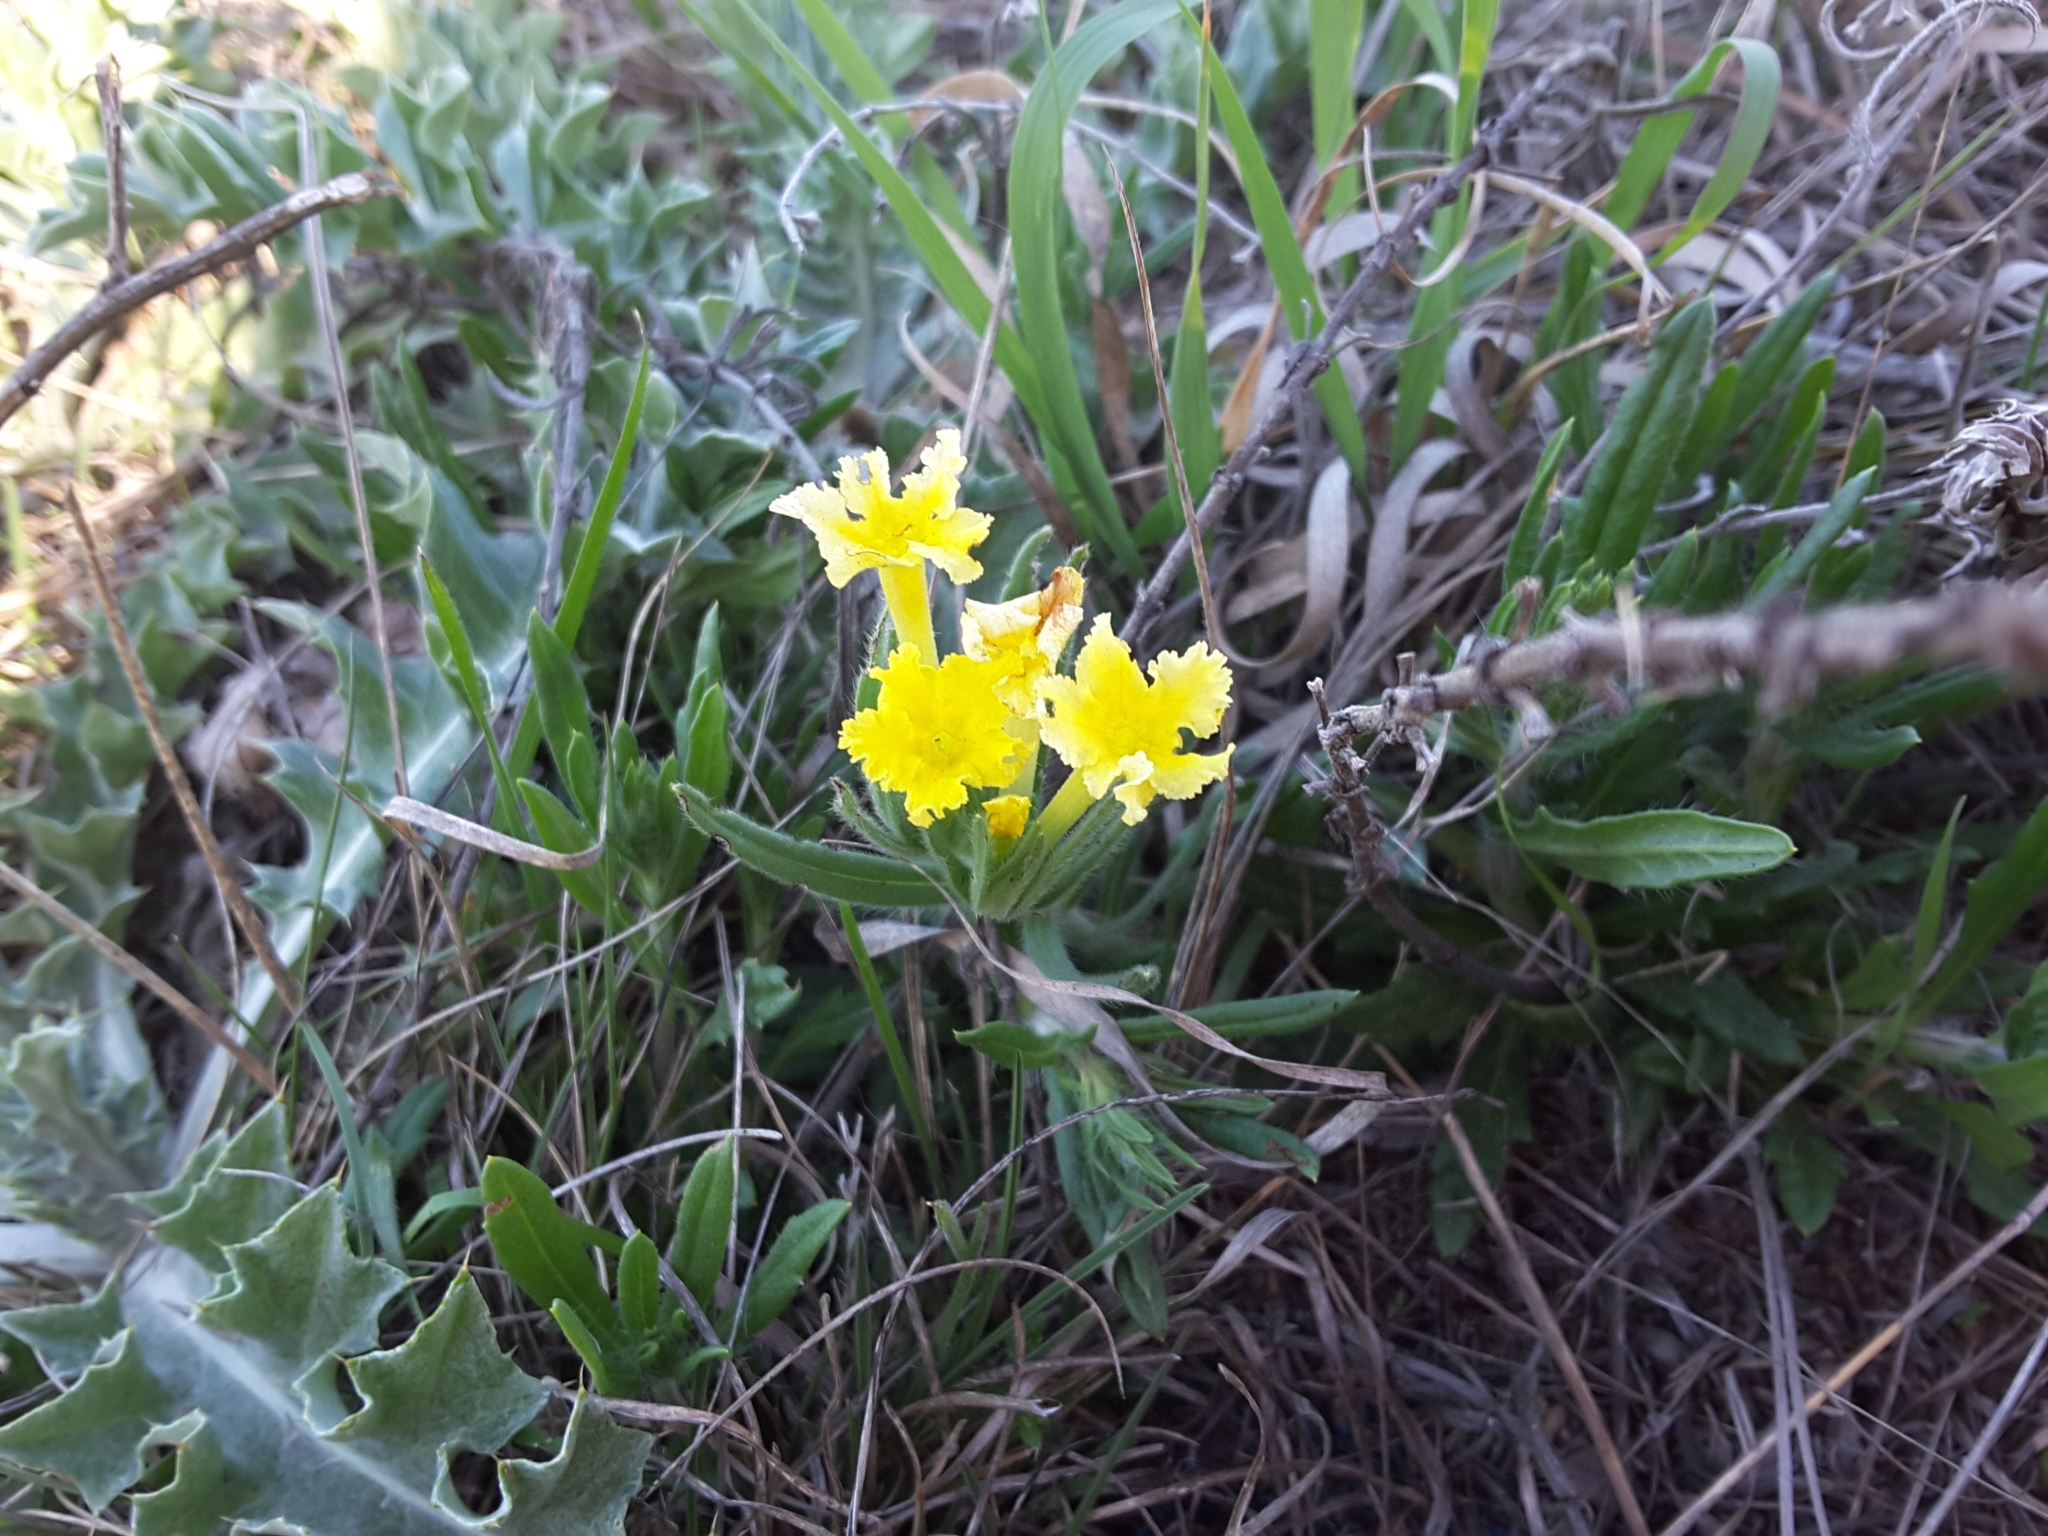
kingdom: Plantae
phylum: Tracheophyta
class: Magnoliopsida
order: Boraginales
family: Boraginaceae
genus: Lithospermum
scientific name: Lithospermum incisum
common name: Fringed gromwell
